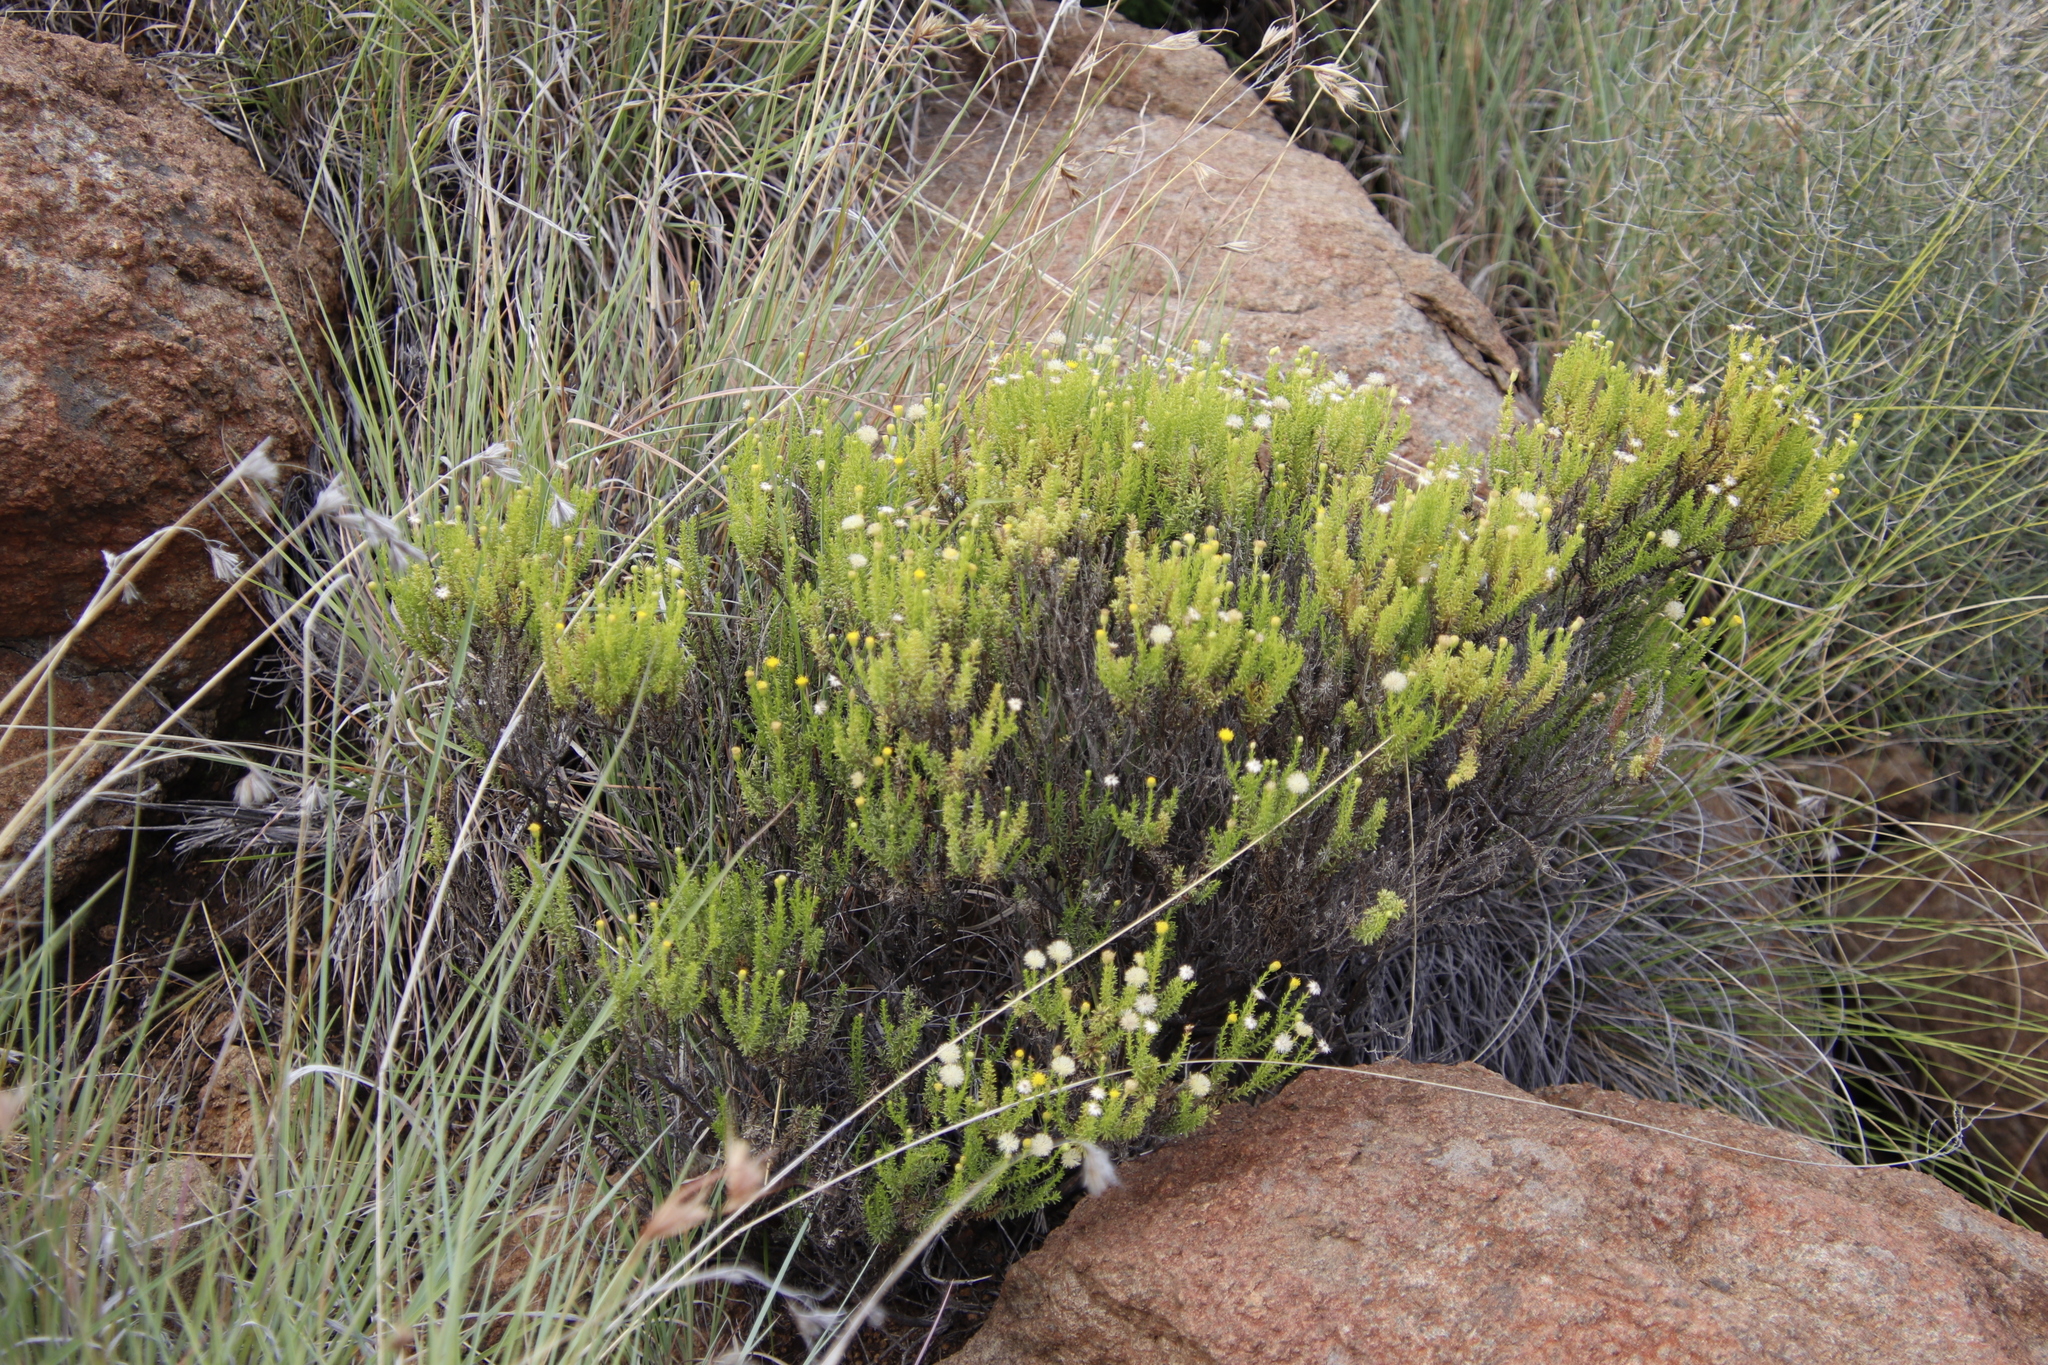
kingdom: Plantae
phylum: Tracheophyta
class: Magnoliopsida
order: Asterales
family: Asteraceae
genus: Chrysocoma
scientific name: Chrysocoma ciliata
